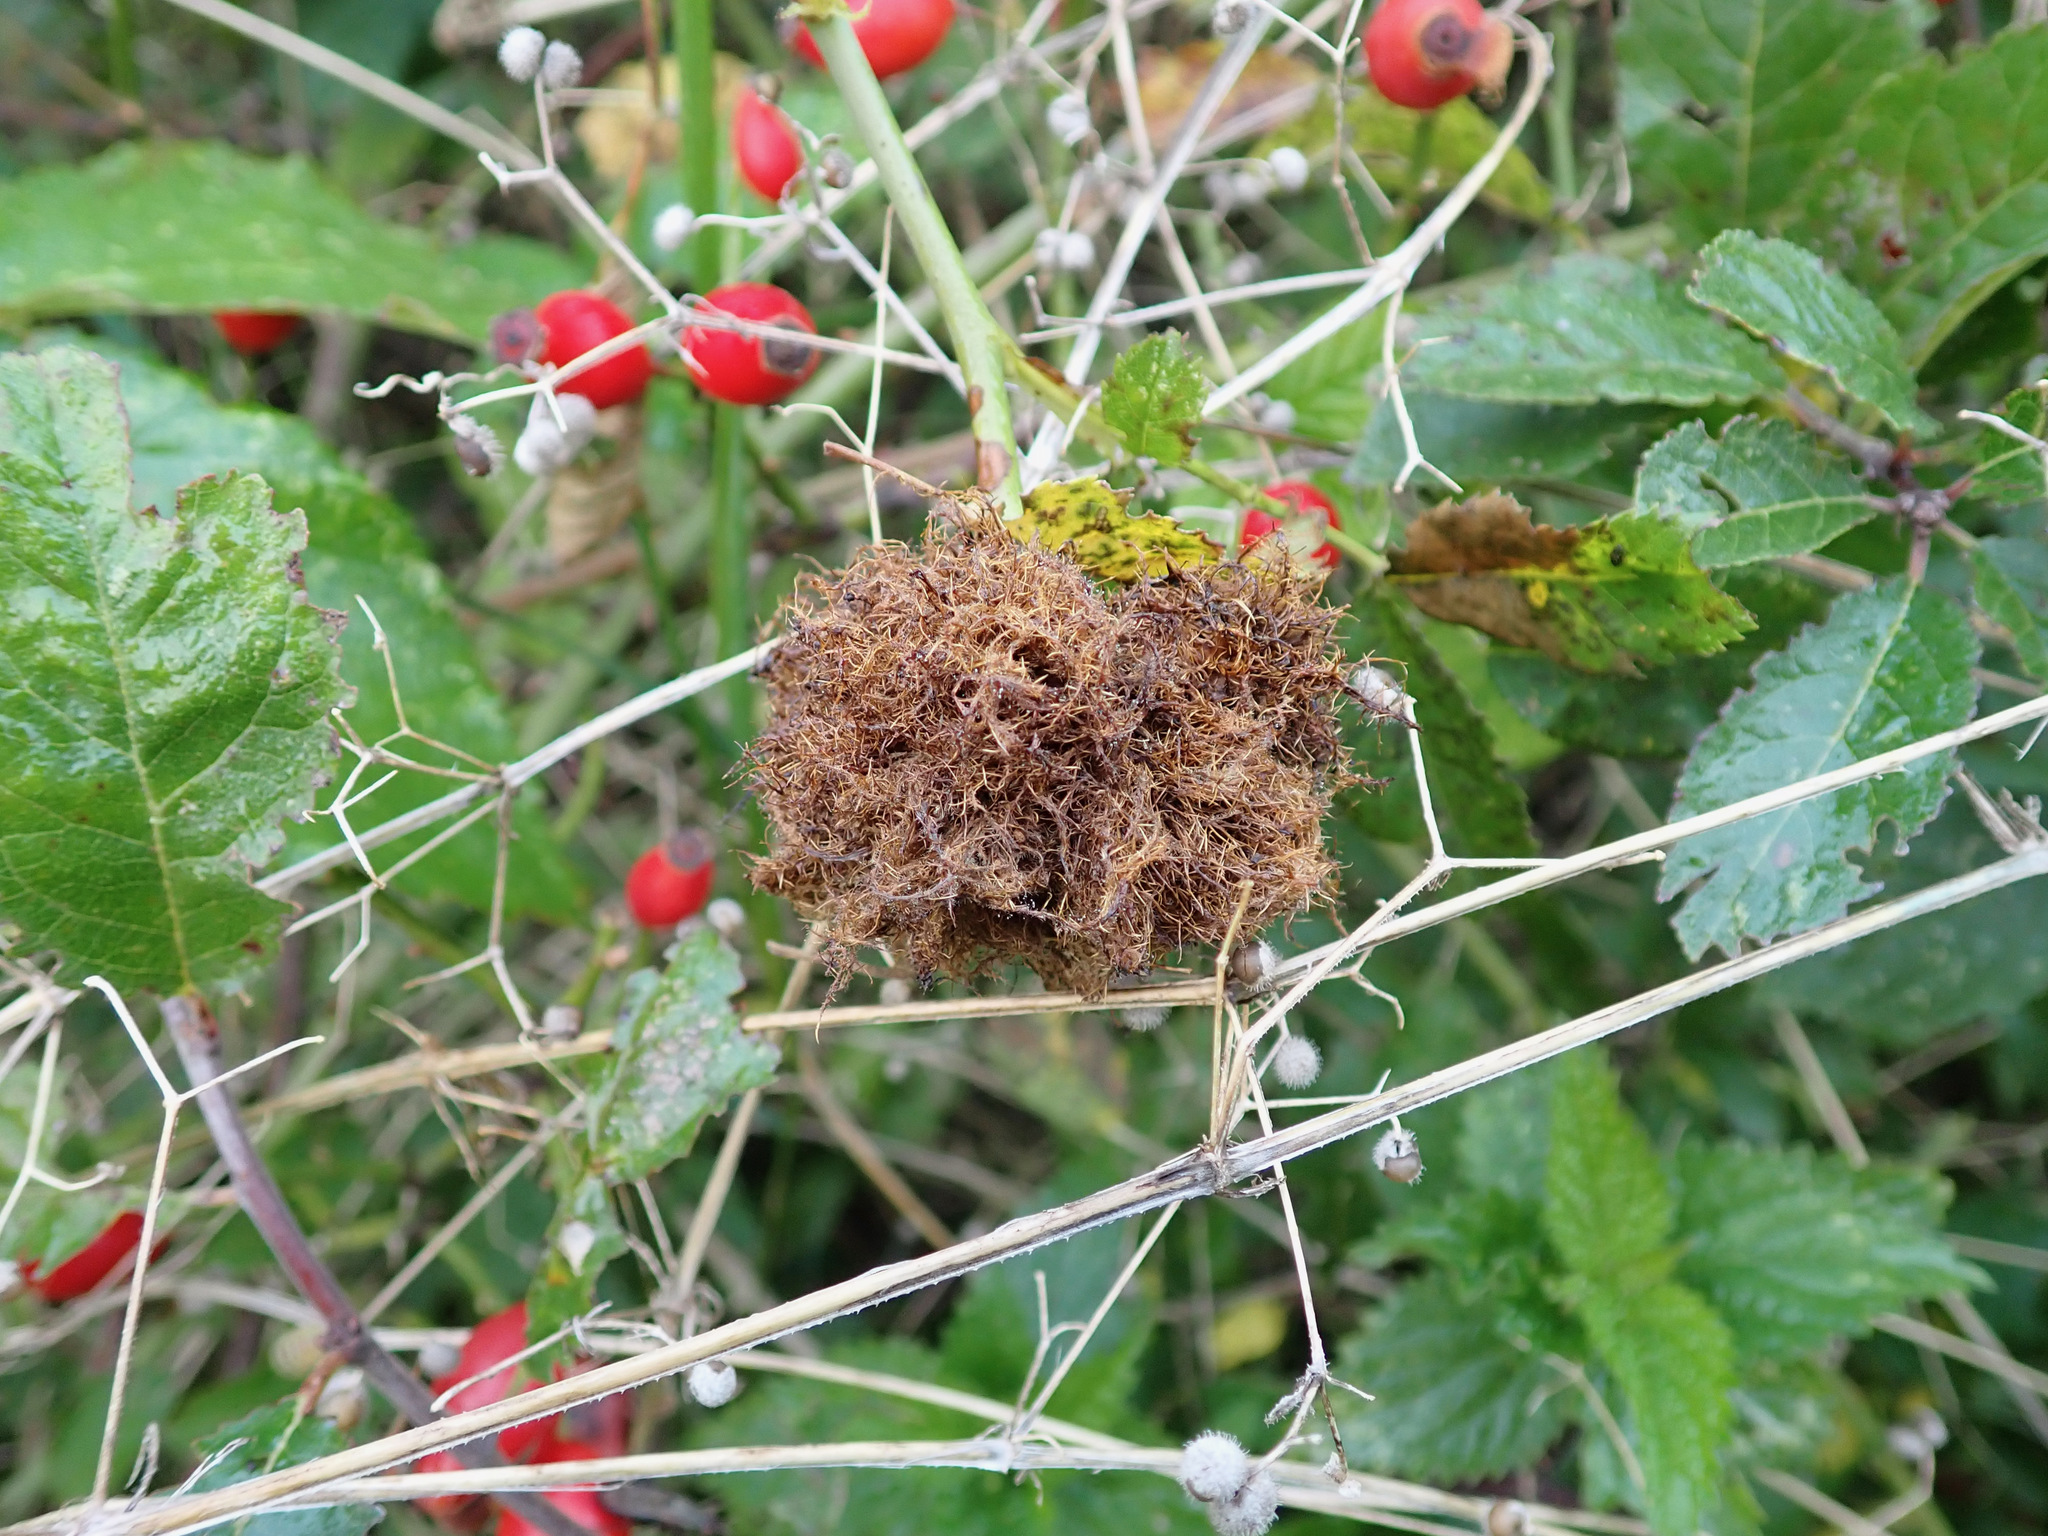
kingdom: Animalia
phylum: Arthropoda
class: Insecta
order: Hymenoptera
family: Cynipidae
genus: Diplolepis
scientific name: Diplolepis rosae
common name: Bedeguar gall
